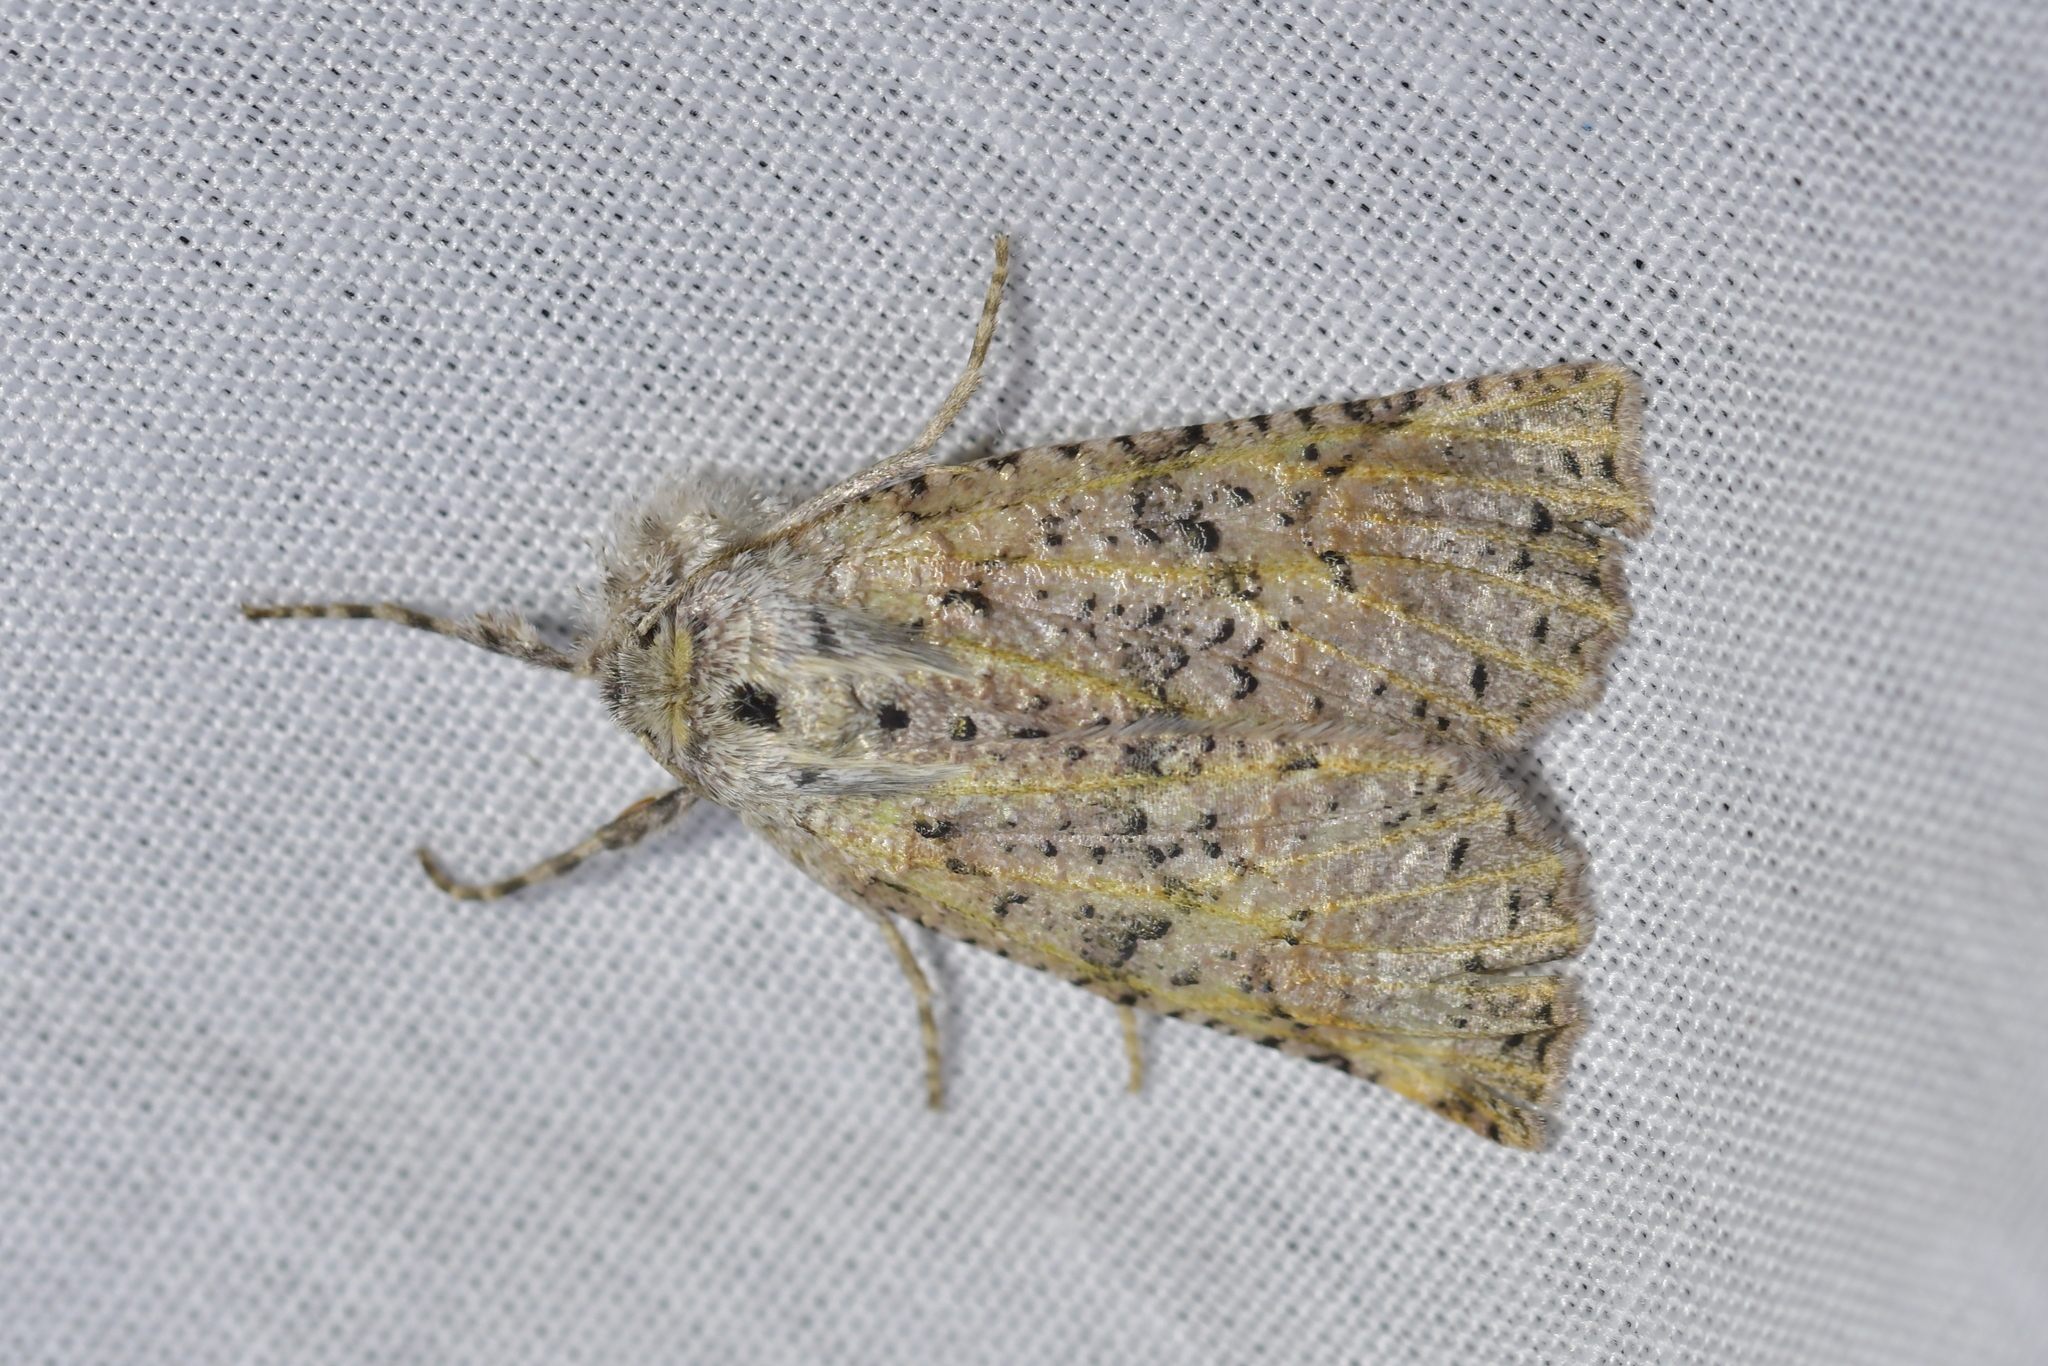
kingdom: Animalia
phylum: Arthropoda
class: Insecta
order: Lepidoptera
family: Geometridae
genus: Declana
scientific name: Declana floccosa
